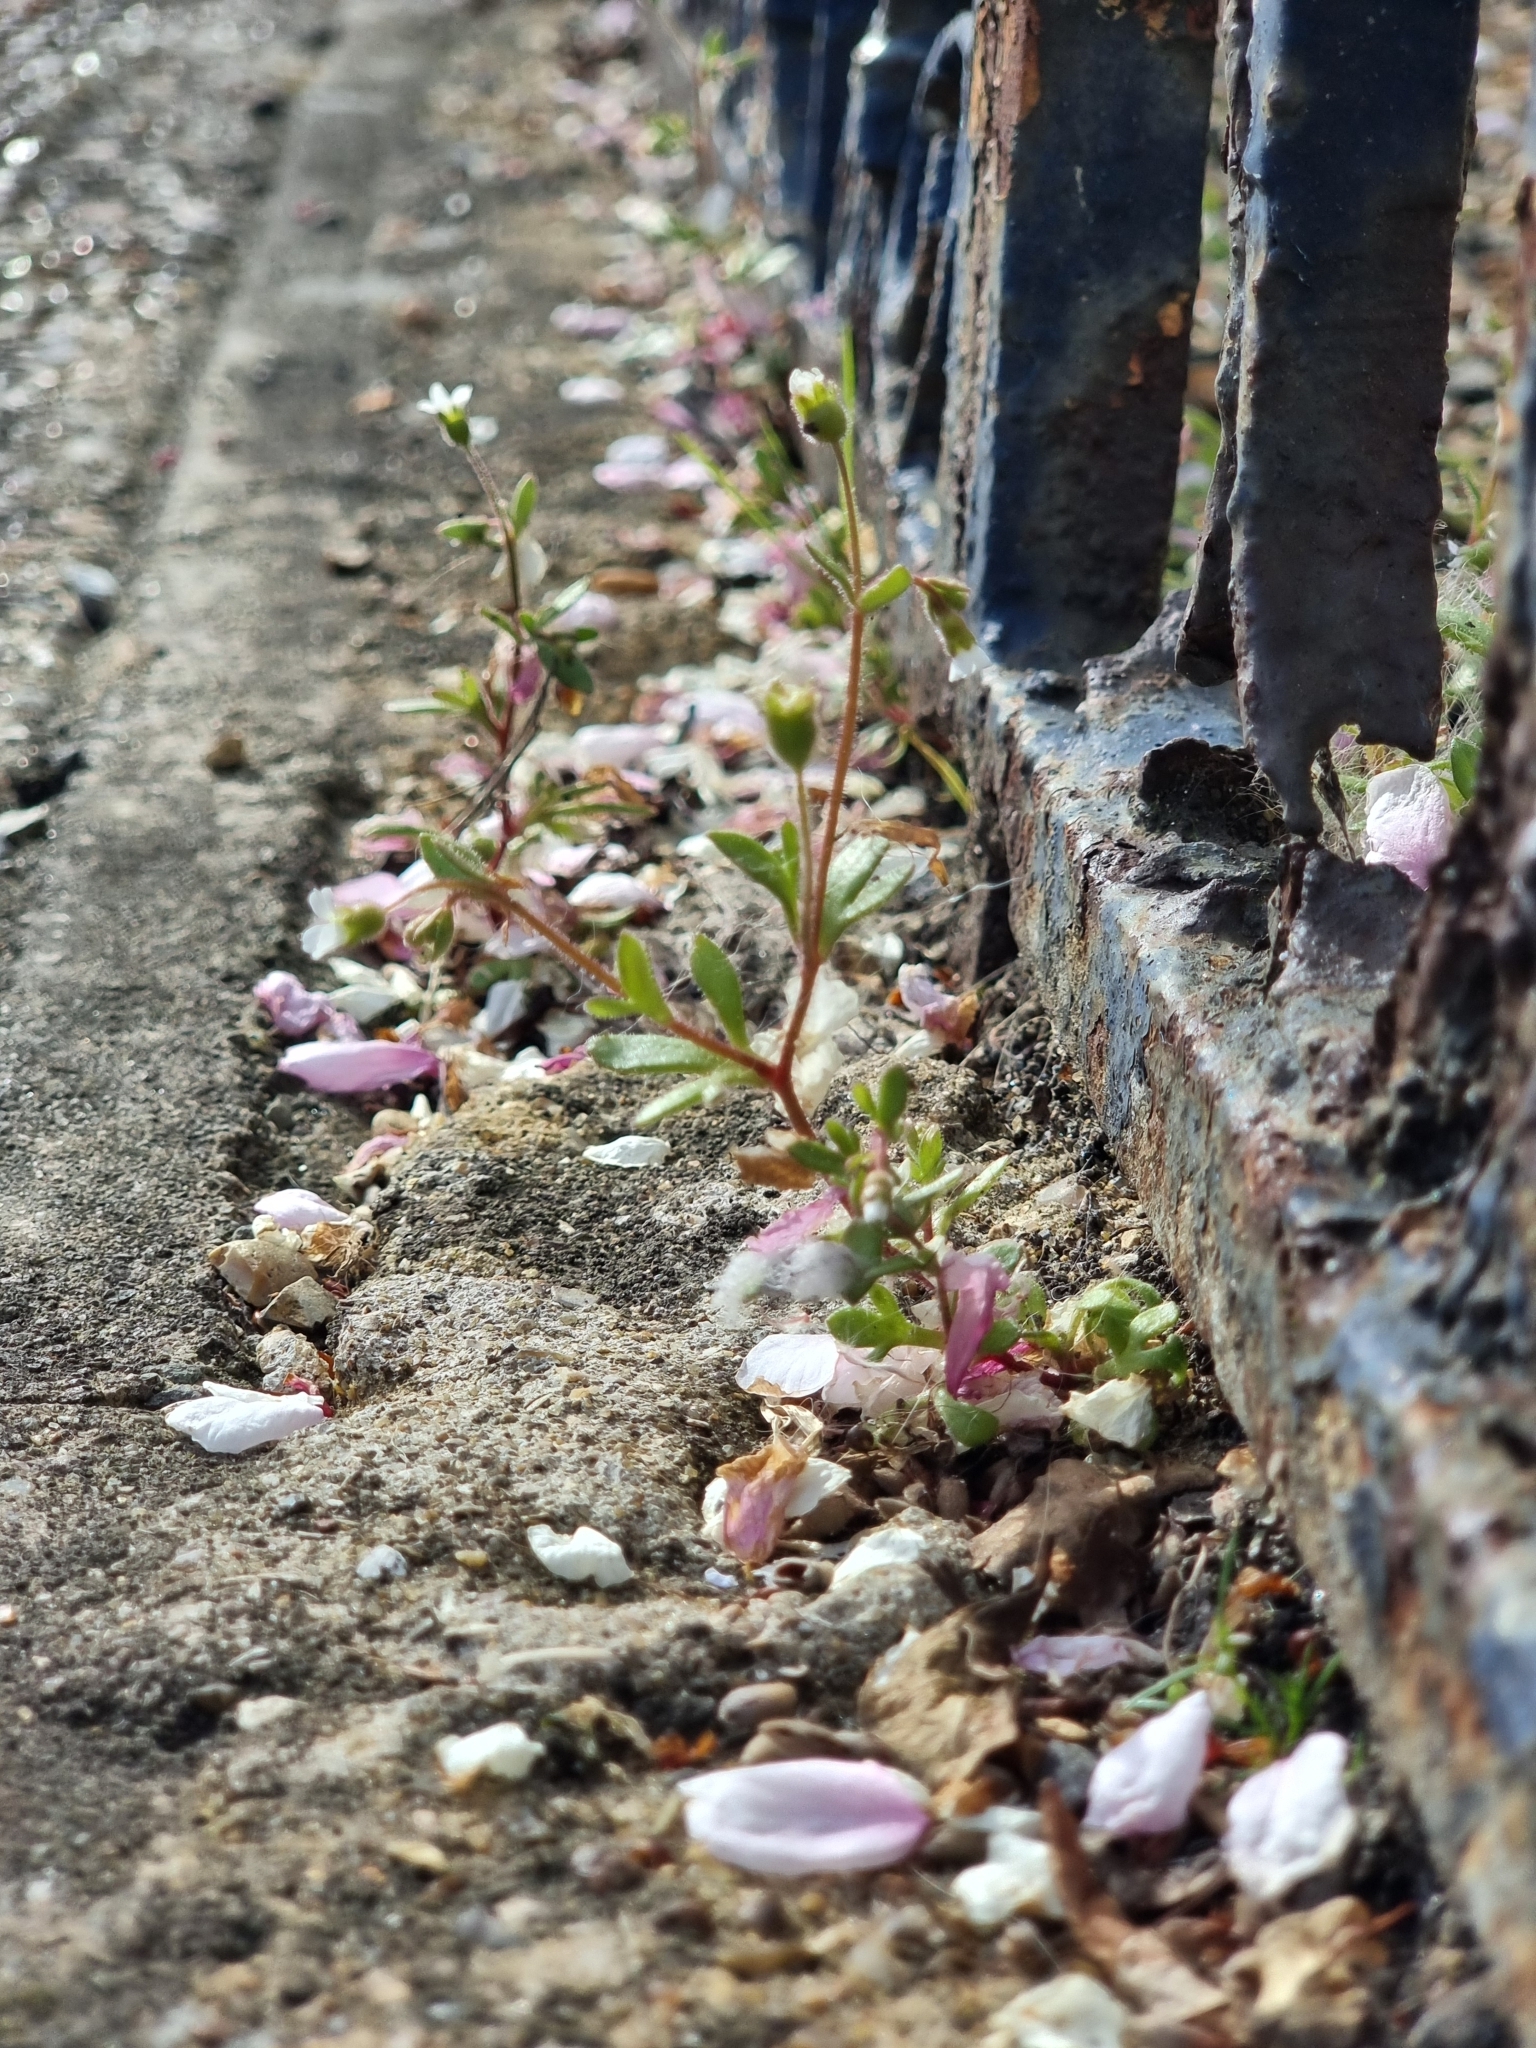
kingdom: Plantae
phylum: Tracheophyta
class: Magnoliopsida
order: Saxifragales
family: Saxifragaceae
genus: Saxifraga
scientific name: Saxifraga tridactylites
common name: Rue-leaved saxifrage
